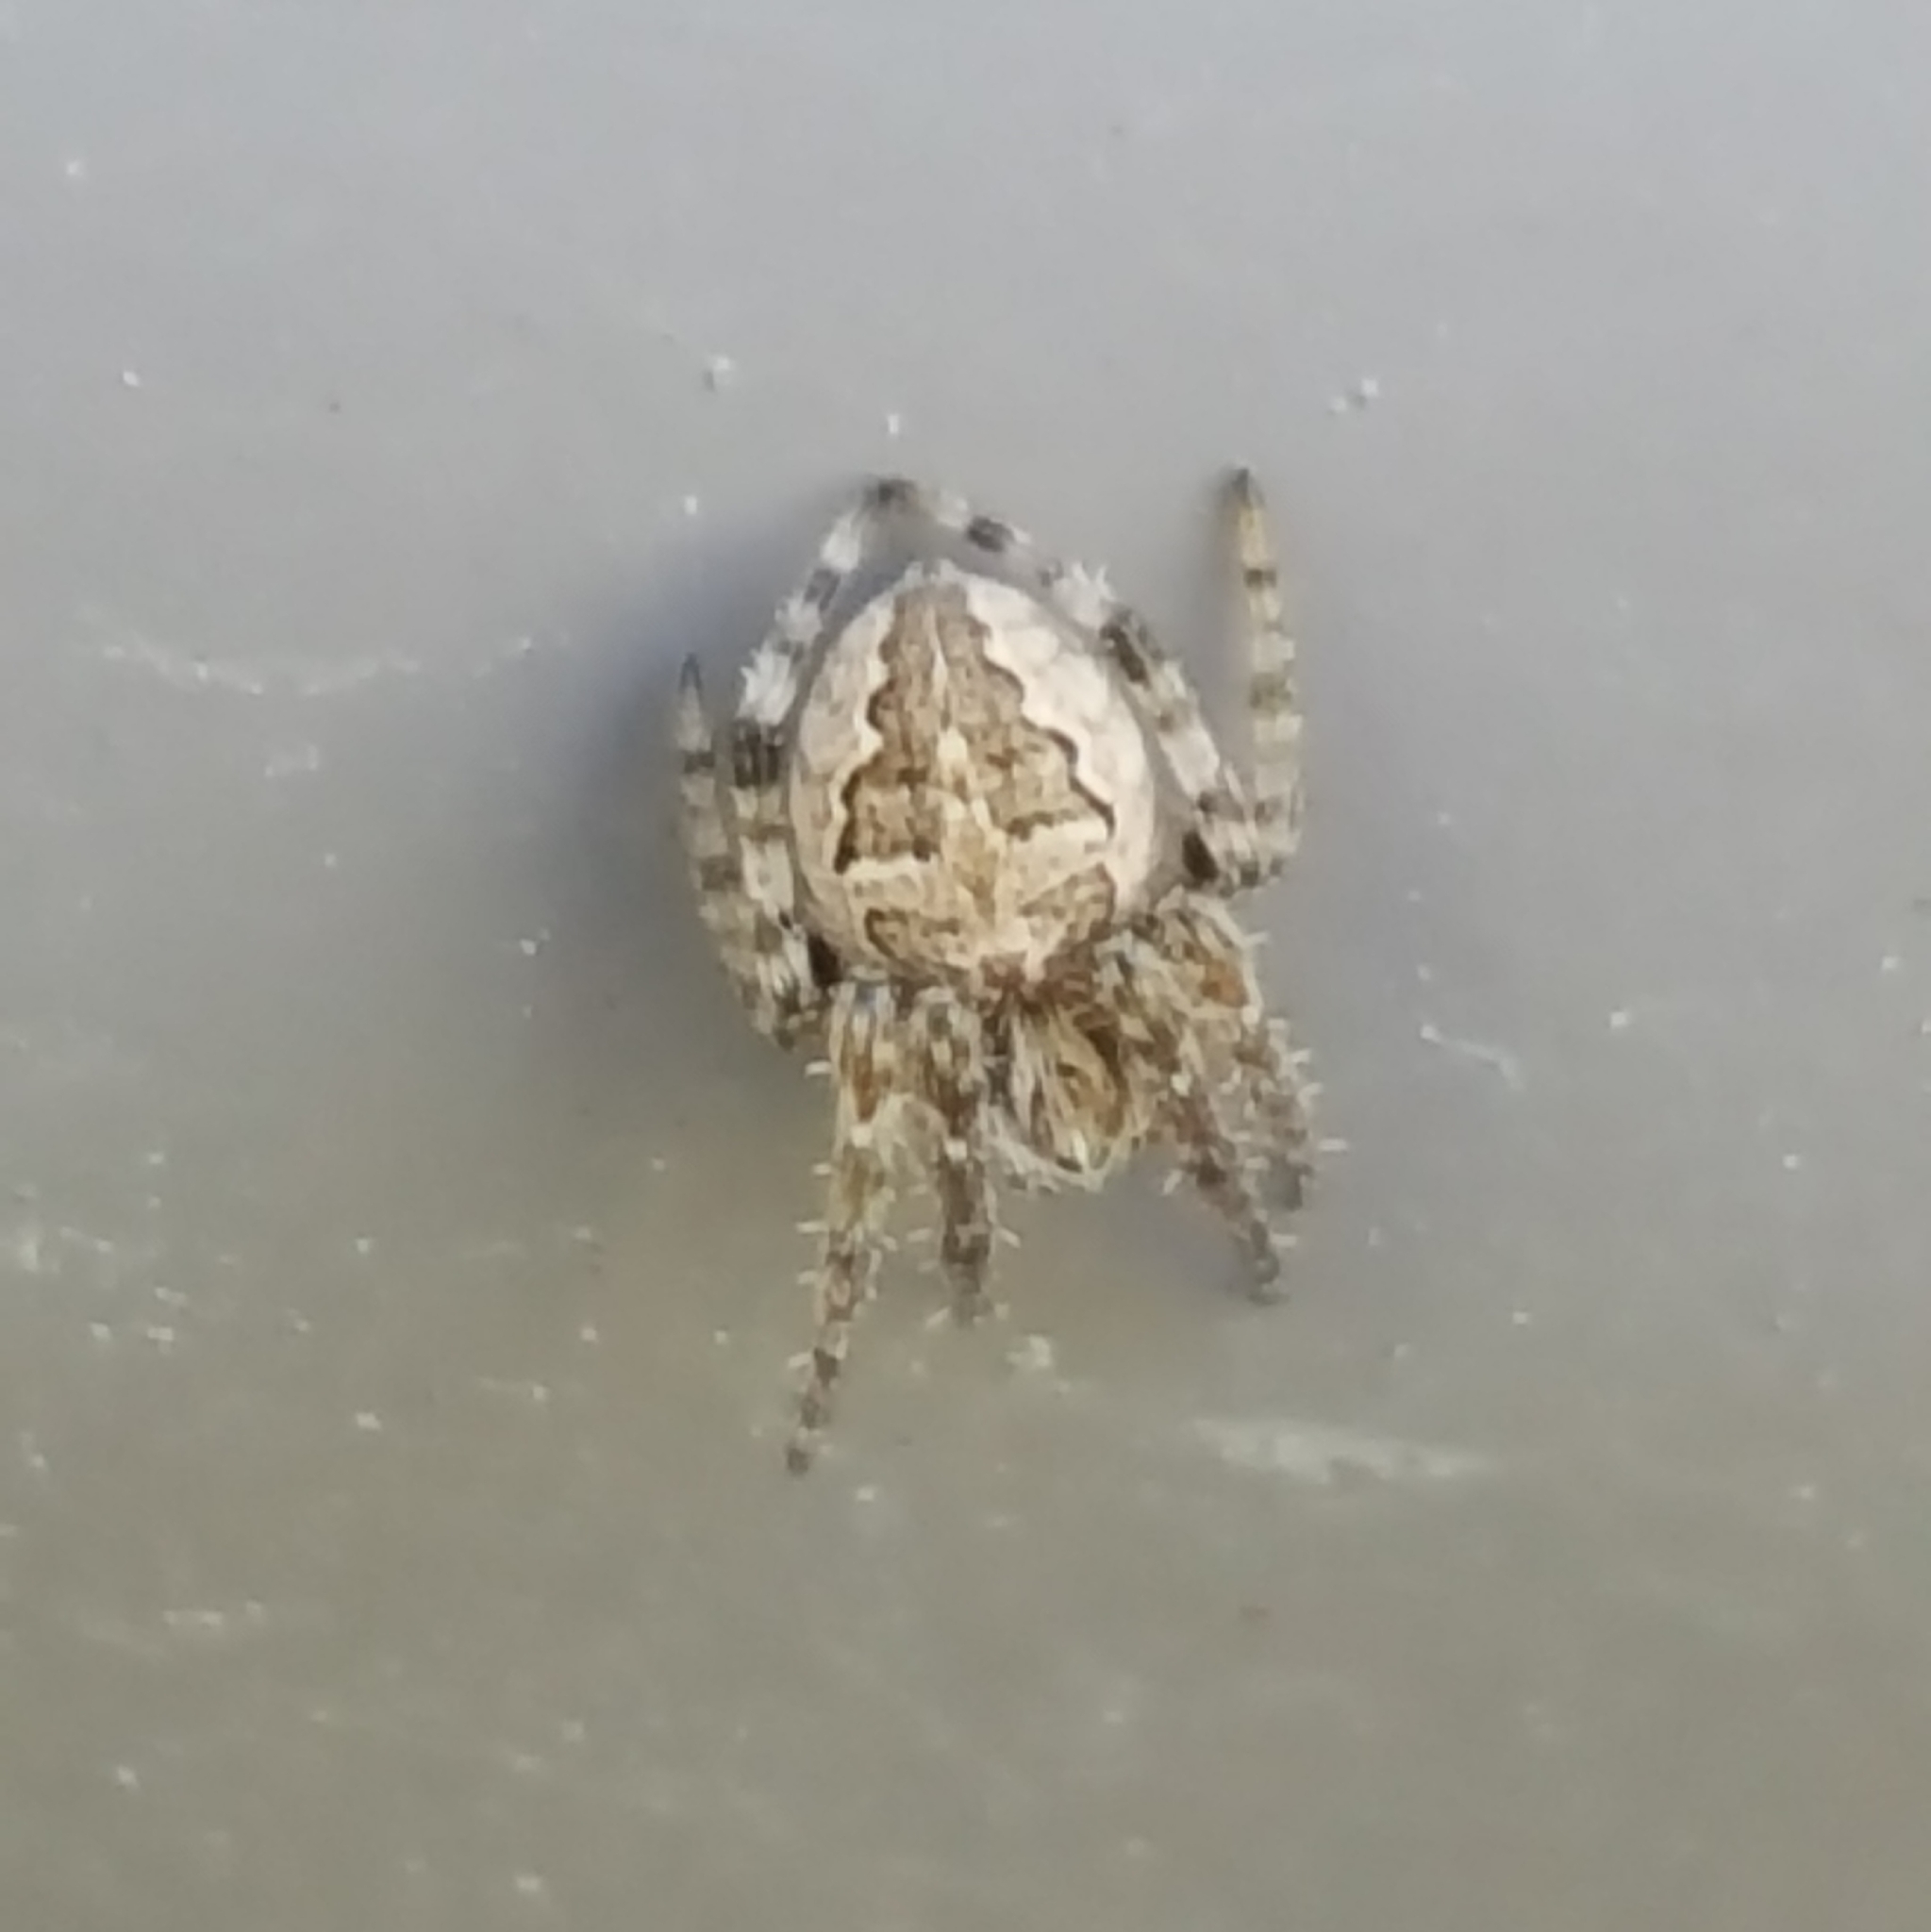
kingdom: Animalia
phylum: Arthropoda
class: Arachnida
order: Araneae
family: Araneidae
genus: Larinioides
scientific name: Larinioides sclopetarius
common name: Bridge orbweaver
